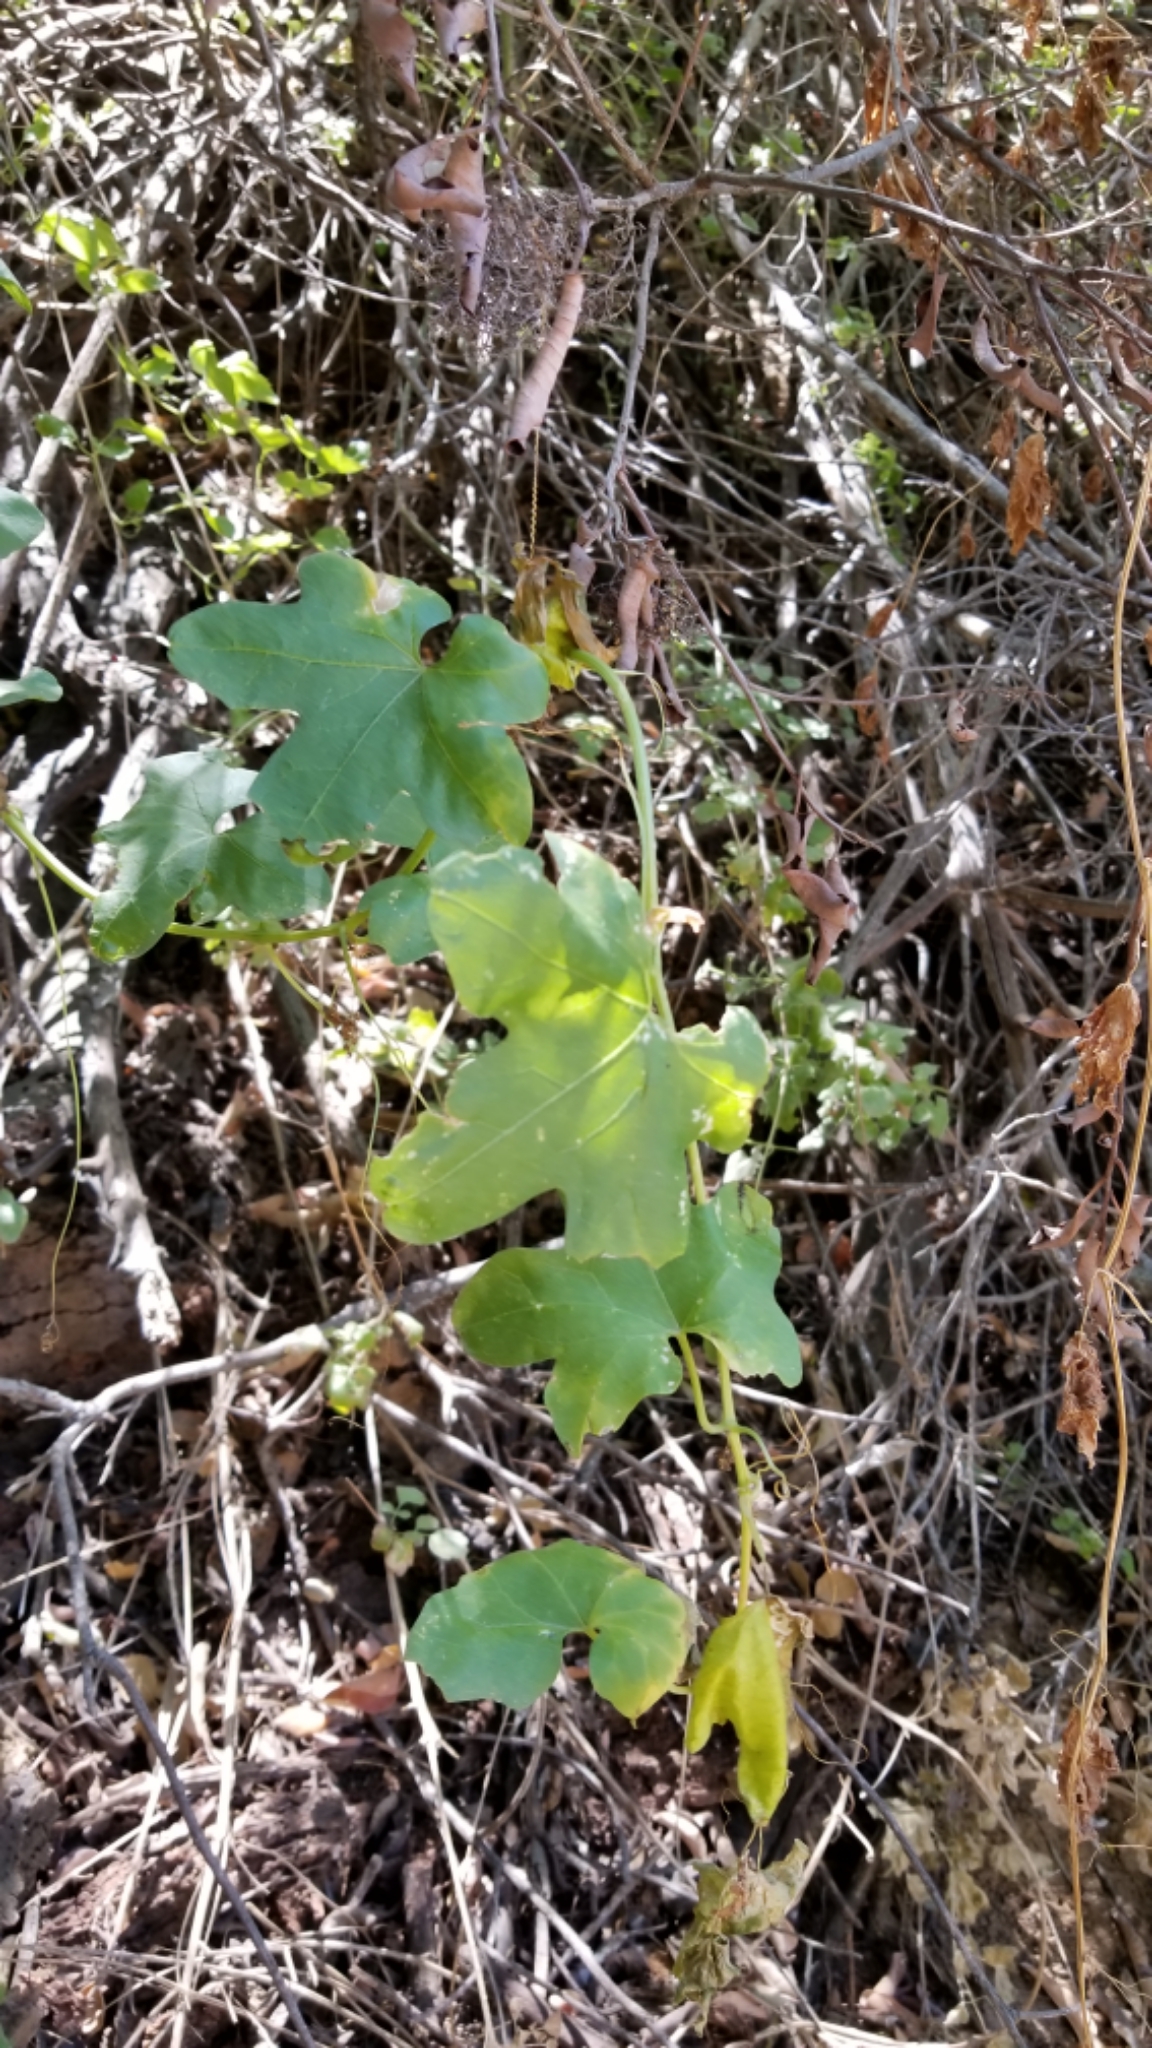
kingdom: Plantae
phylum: Tracheophyta
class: Magnoliopsida
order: Cucurbitales
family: Cucurbitaceae
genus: Marah
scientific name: Marah macrocarpa
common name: Cucamonga manroot
